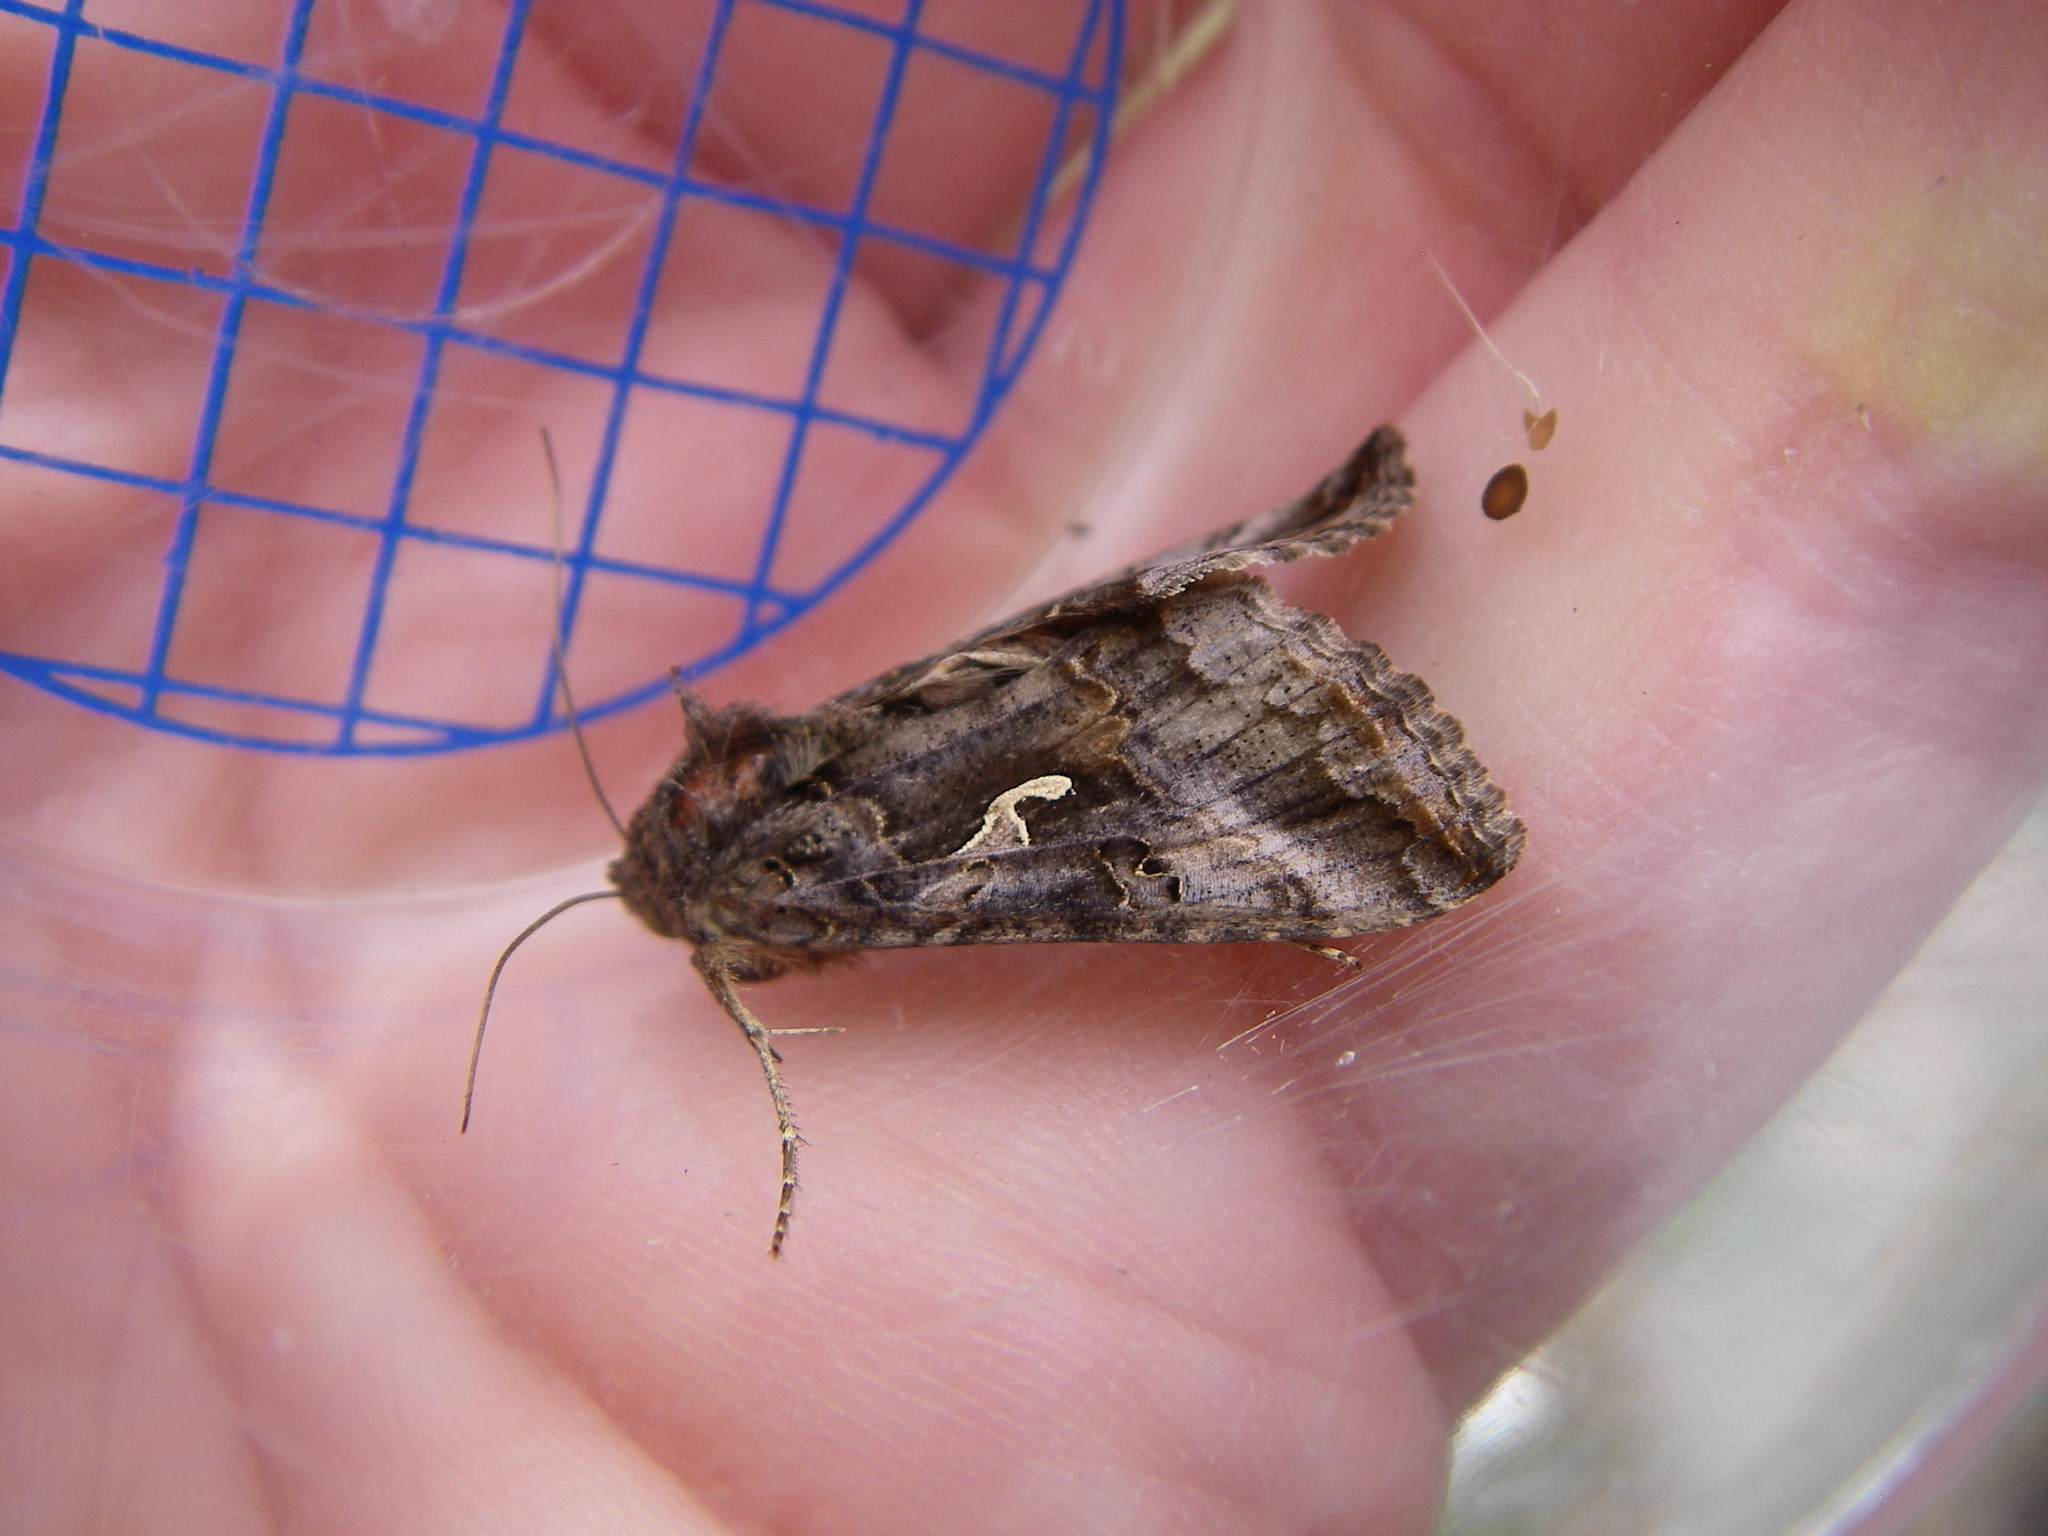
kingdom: Animalia
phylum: Arthropoda
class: Insecta
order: Lepidoptera
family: Noctuidae
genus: Autographa
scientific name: Autographa gamma
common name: Silver y
